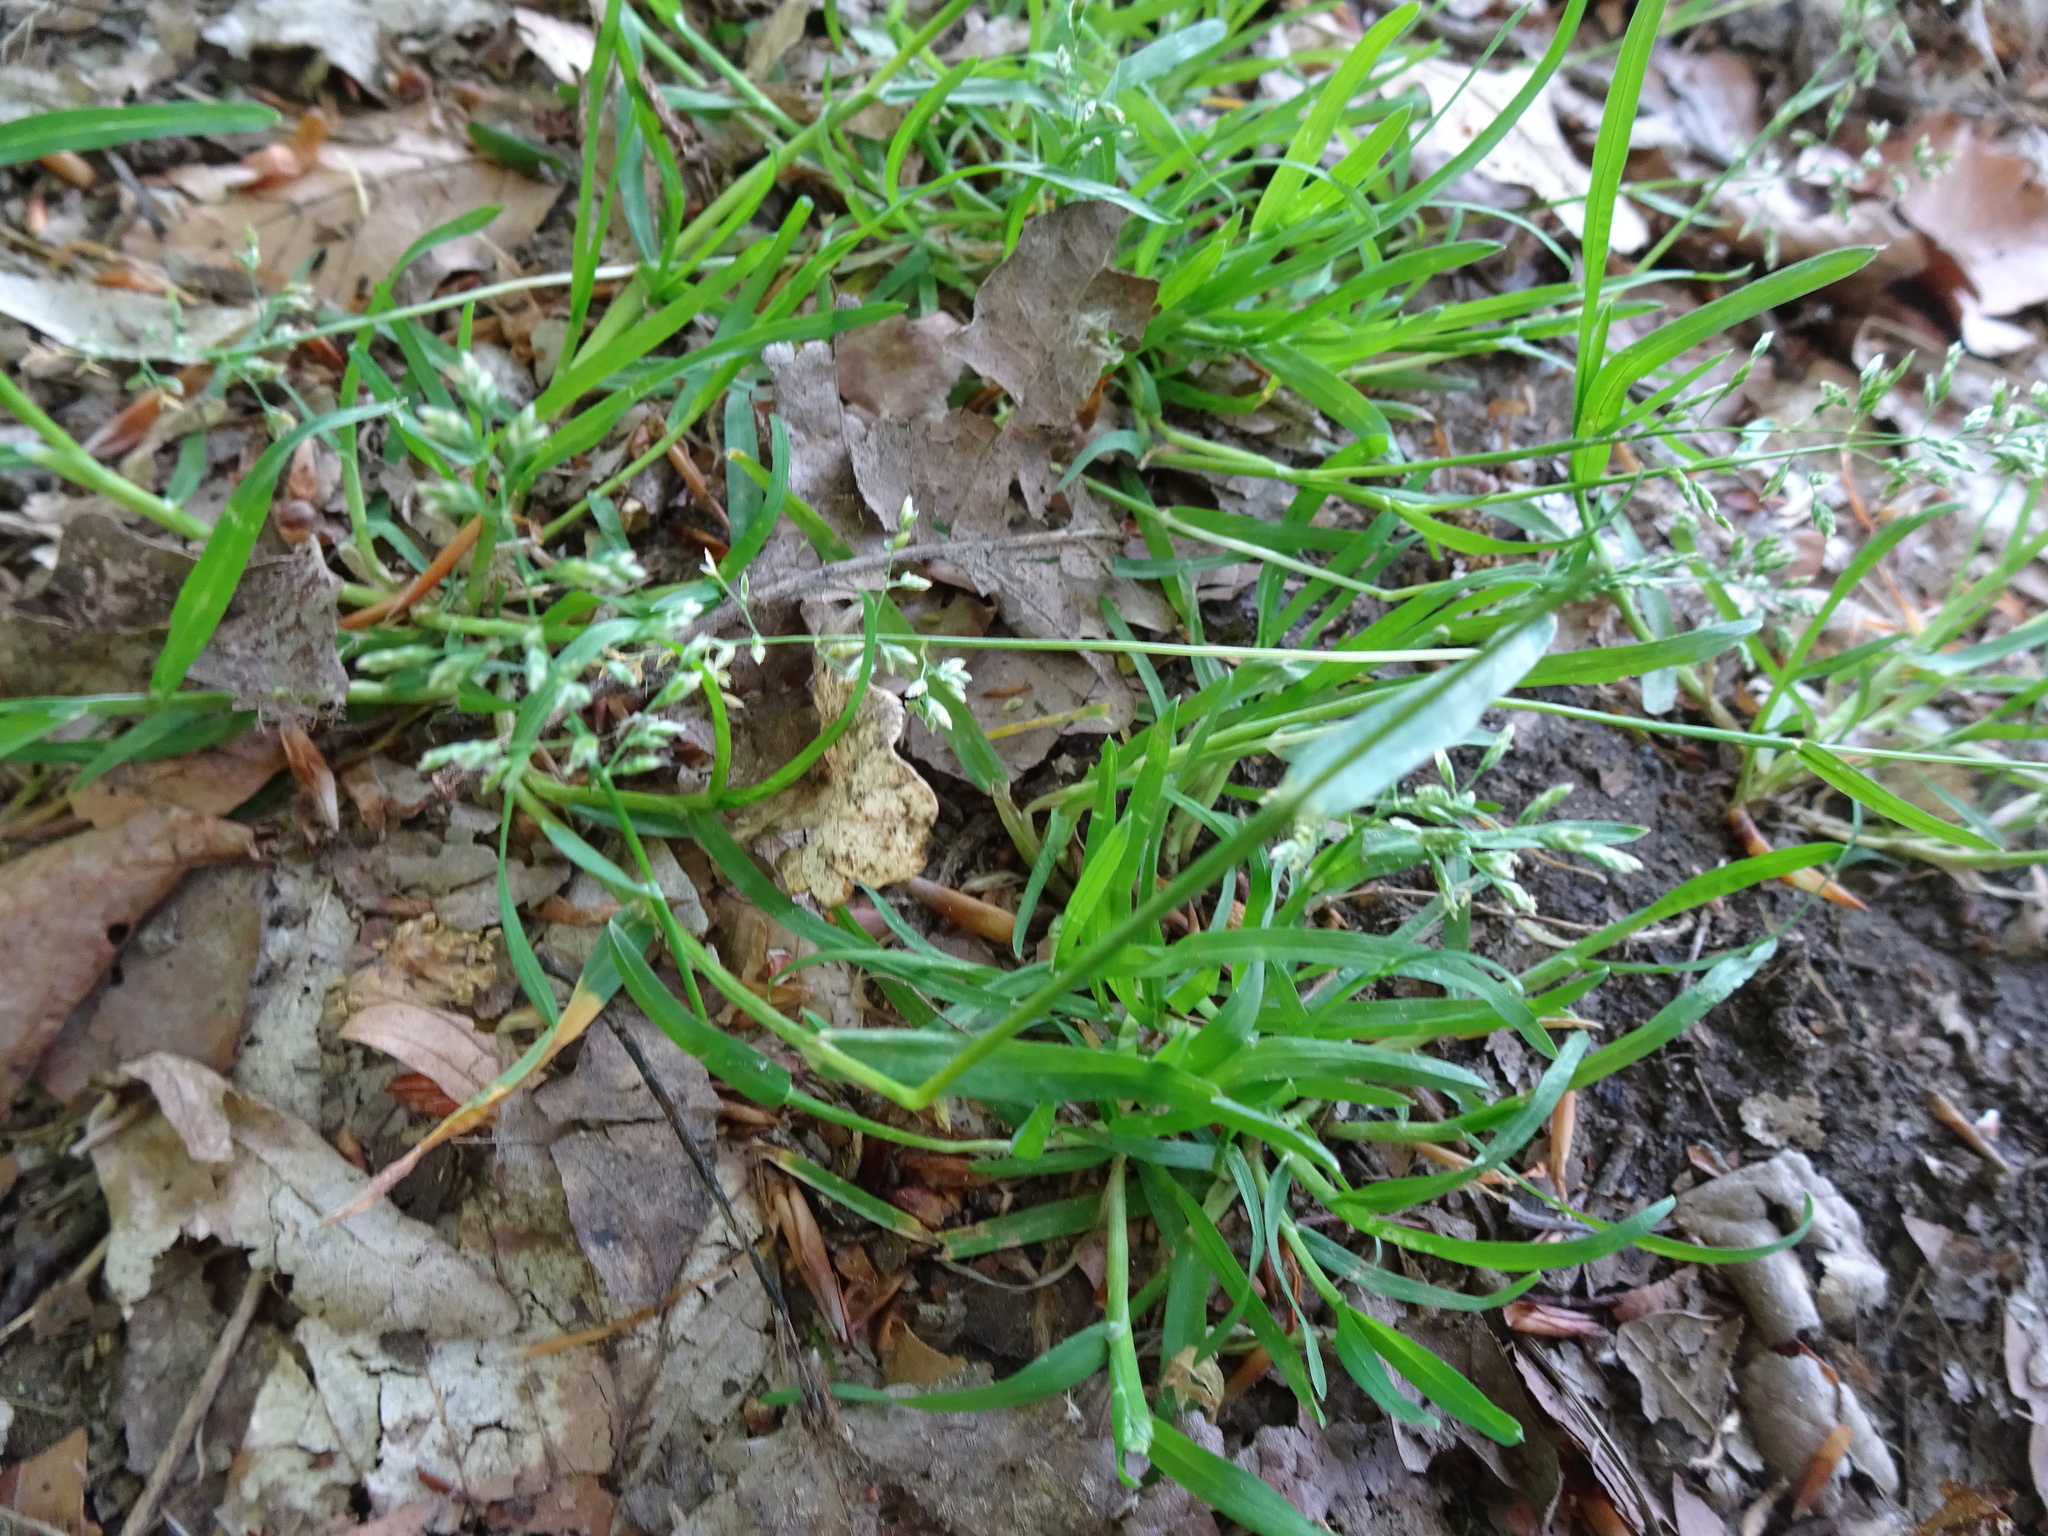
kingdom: Plantae
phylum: Tracheophyta
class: Liliopsida
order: Poales
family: Poaceae
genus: Poa
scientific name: Poa annua
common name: Annual bluegrass
